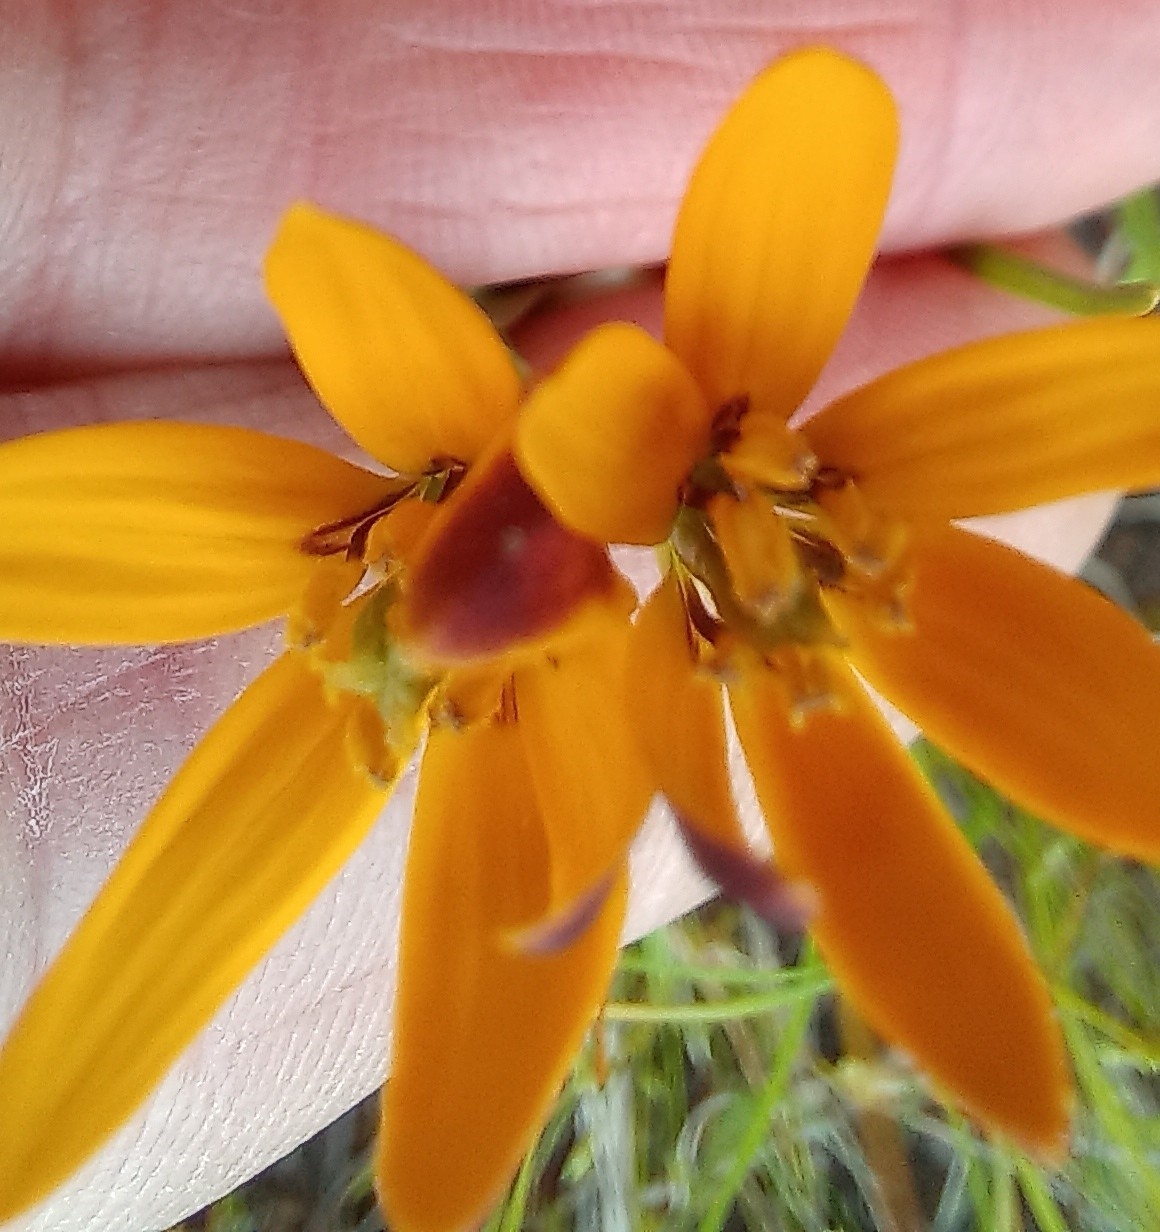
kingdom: Plantae
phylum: Tracheophyta
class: Liliopsida
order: Liliales
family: Colchicaceae
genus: Baeometra
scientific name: Baeometra uniflora
